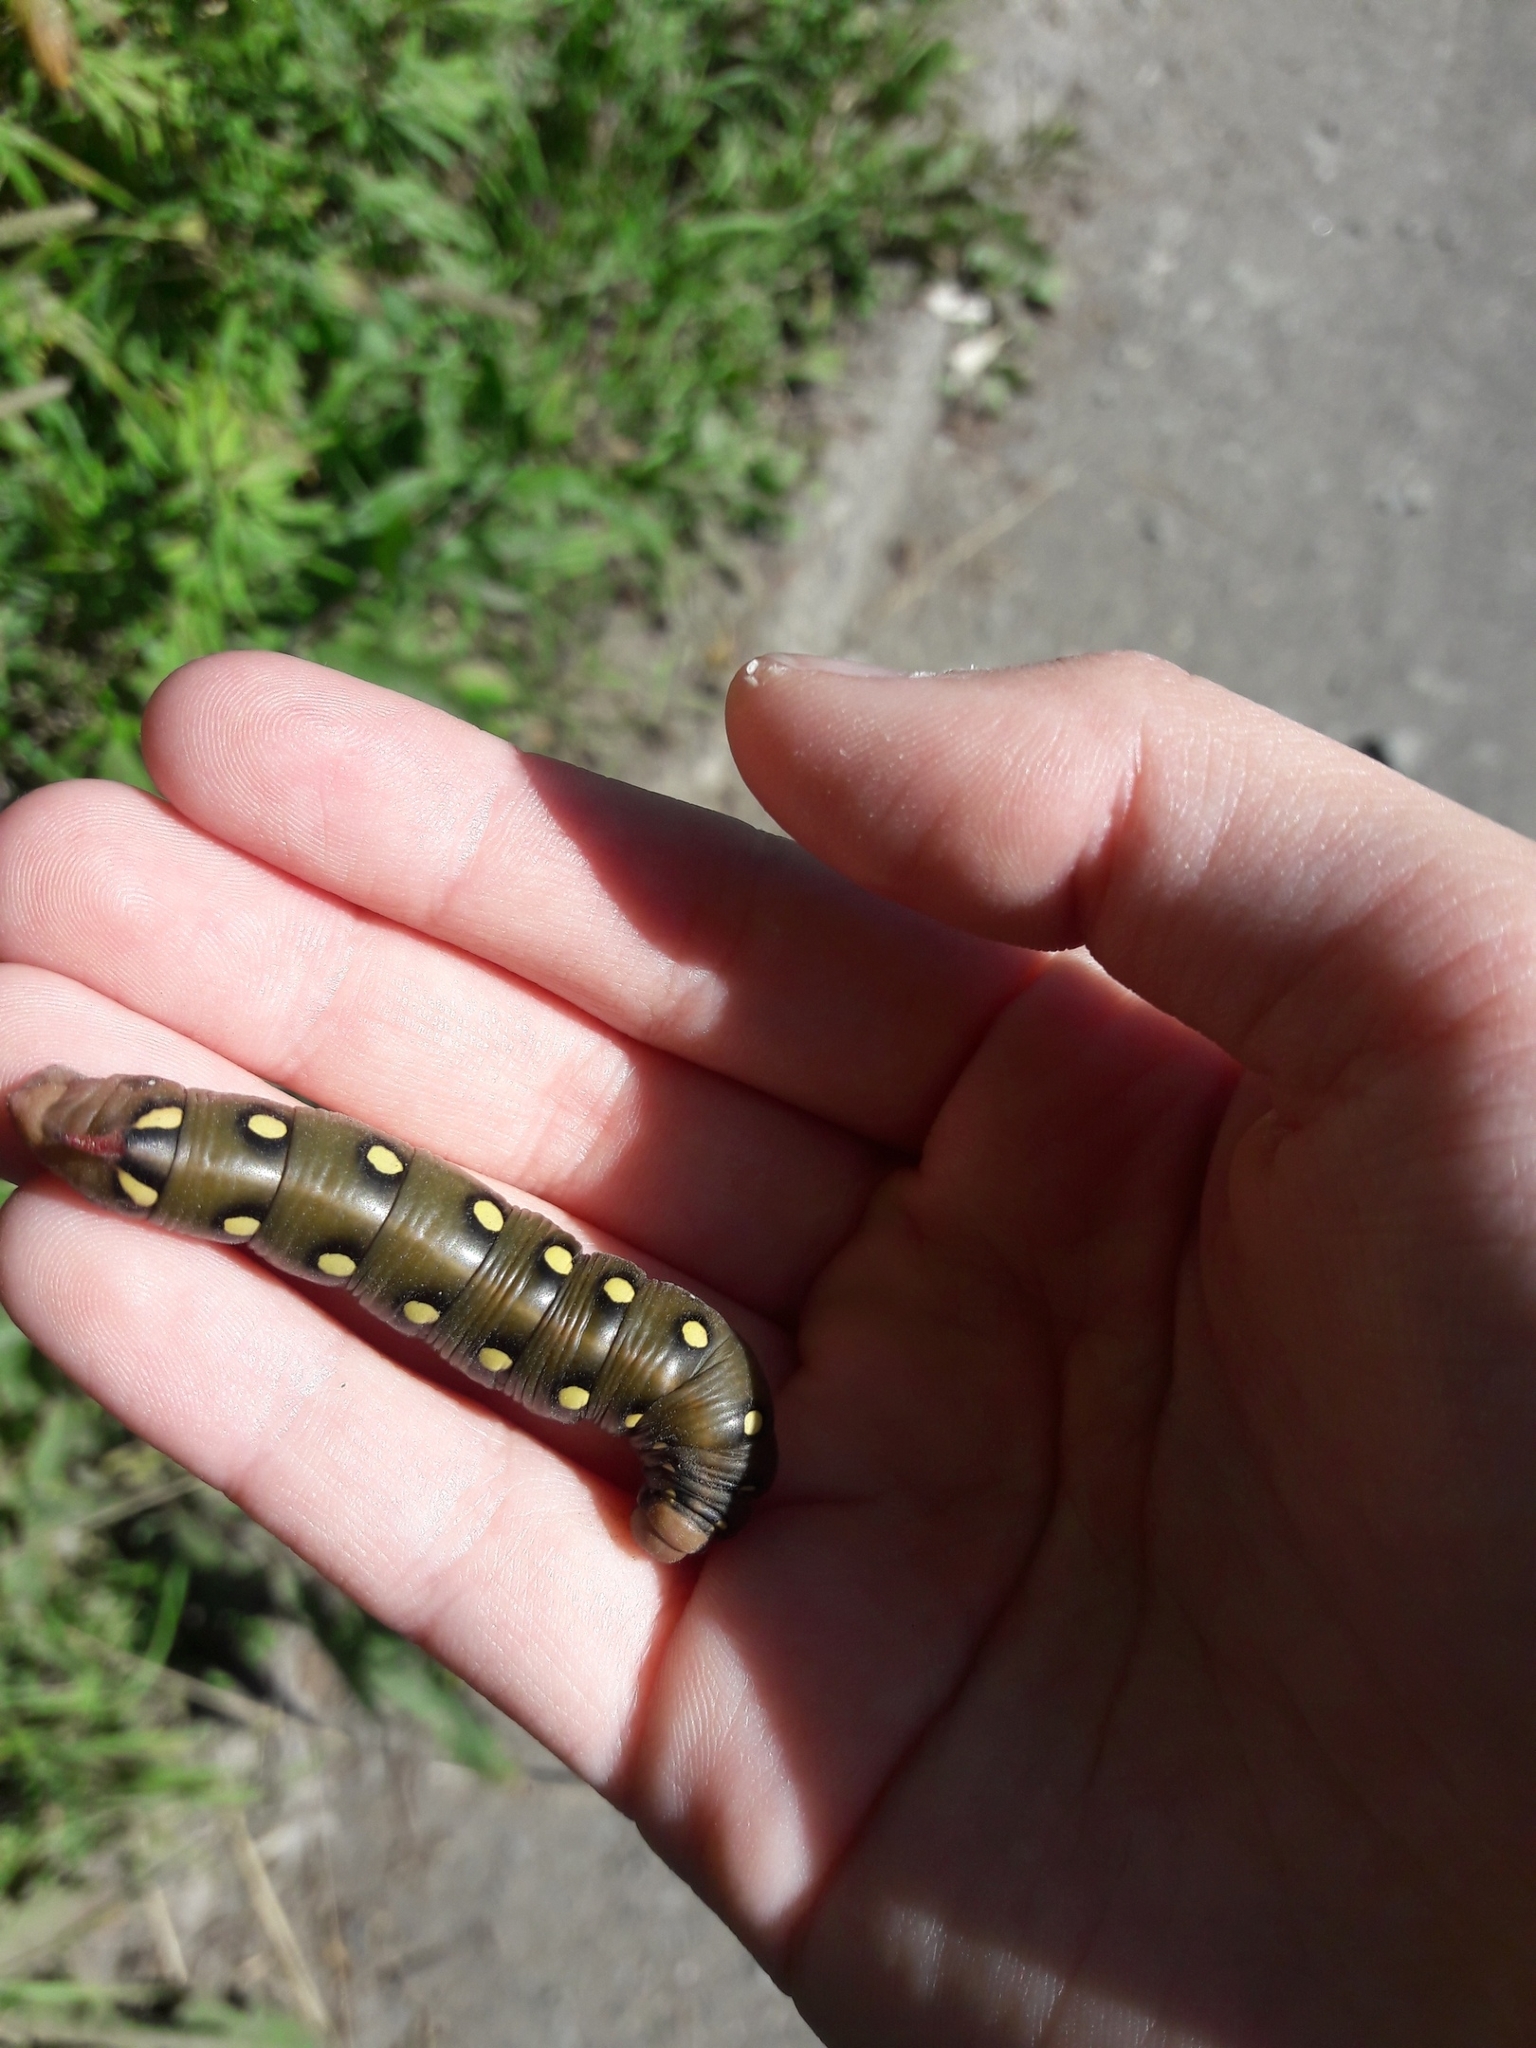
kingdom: Animalia
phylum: Arthropoda
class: Insecta
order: Lepidoptera
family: Sphingidae
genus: Hyles
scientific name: Hyles gallii
